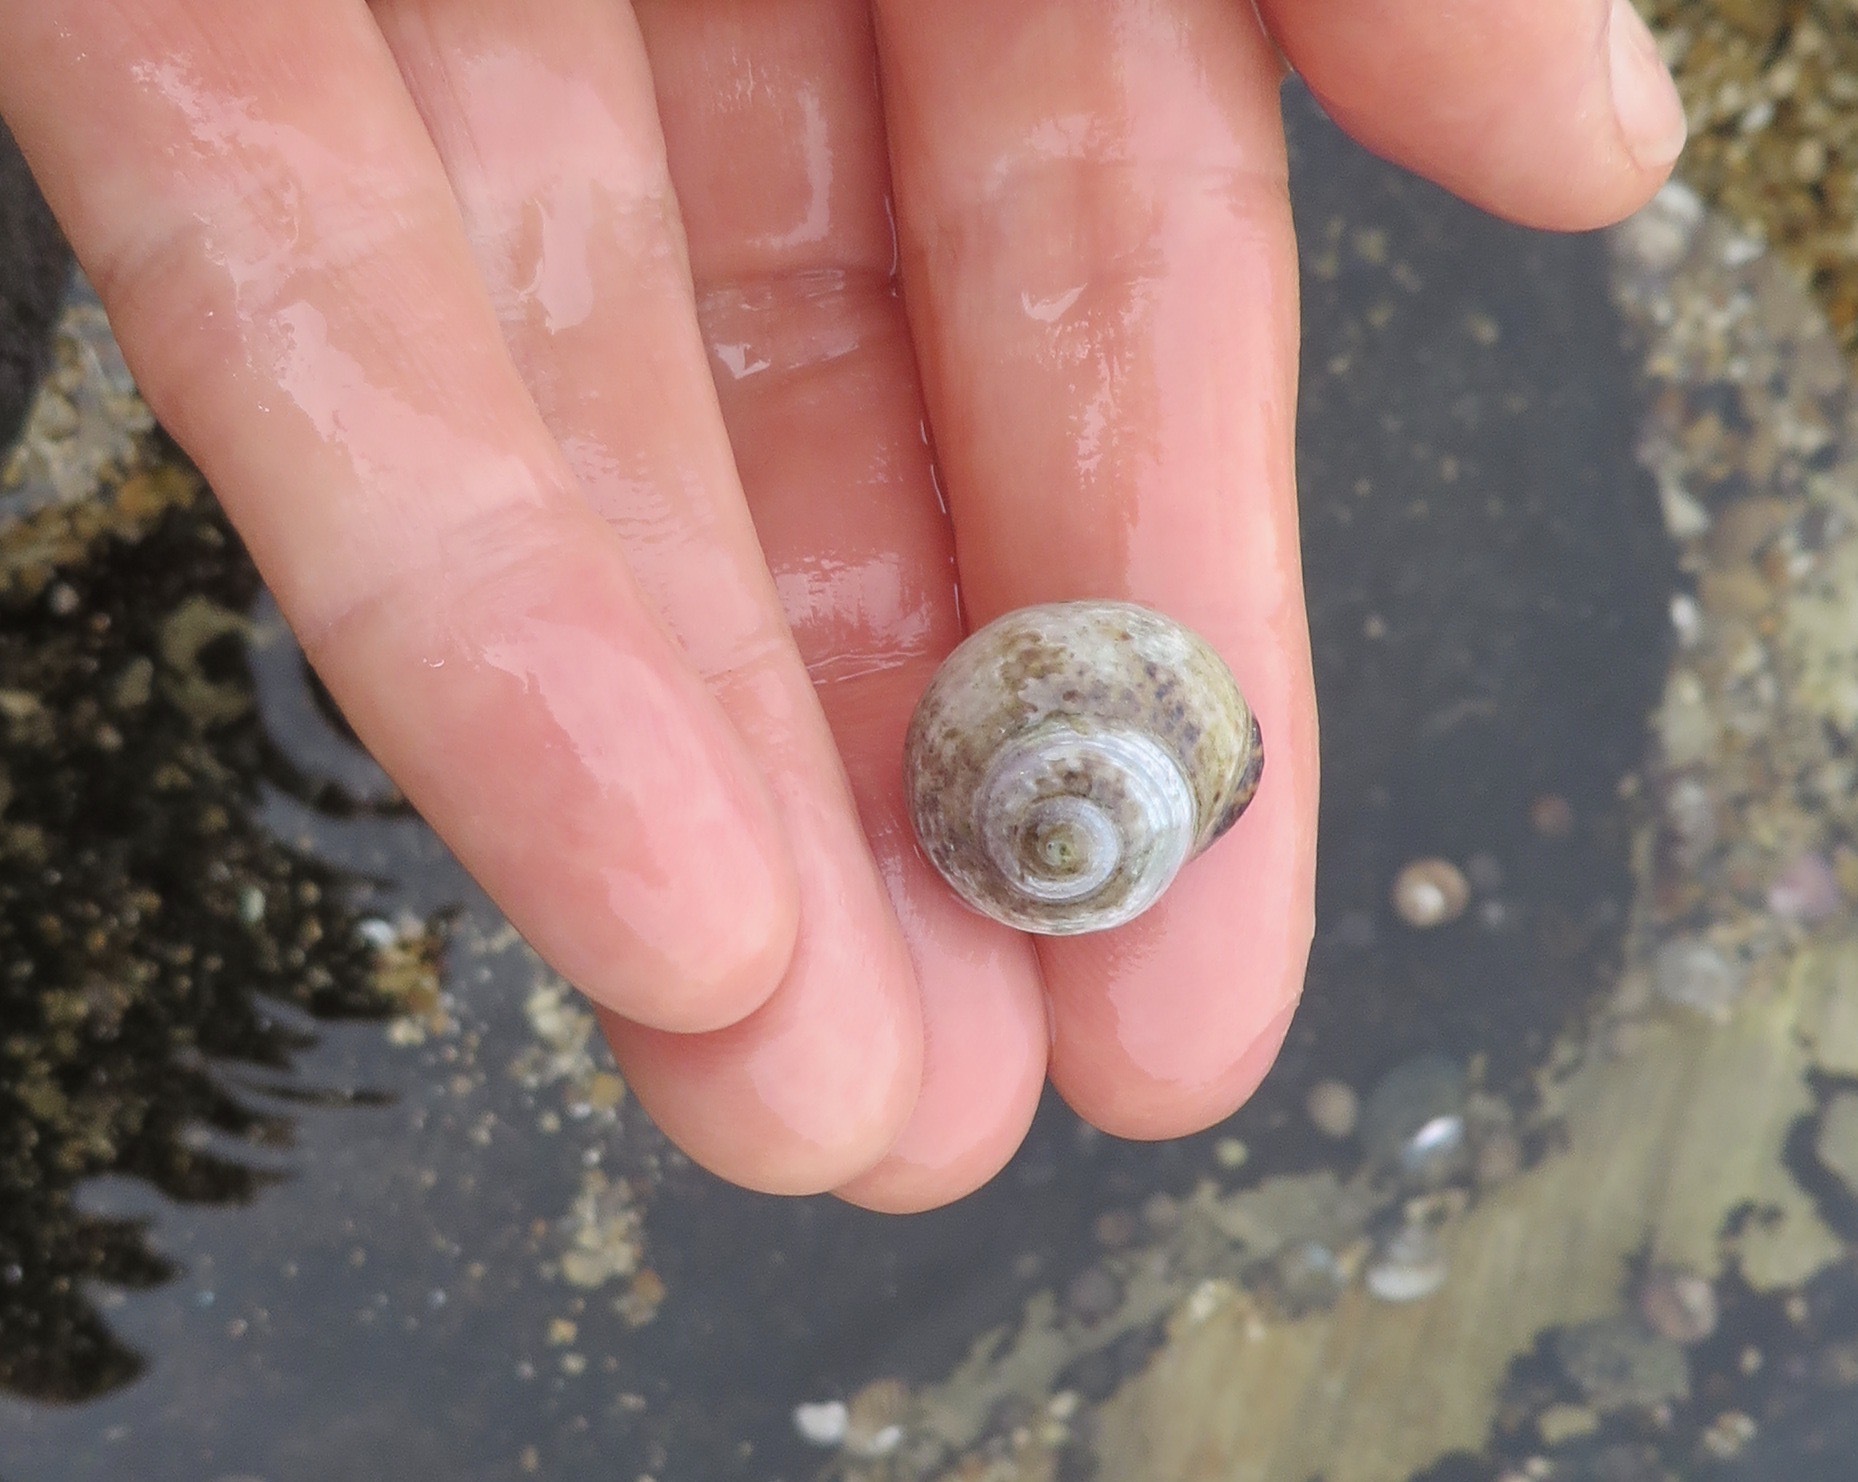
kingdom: Animalia
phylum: Mollusca
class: Gastropoda
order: Trochida
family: Tegulidae
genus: Tegula
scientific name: Tegula eiseni
